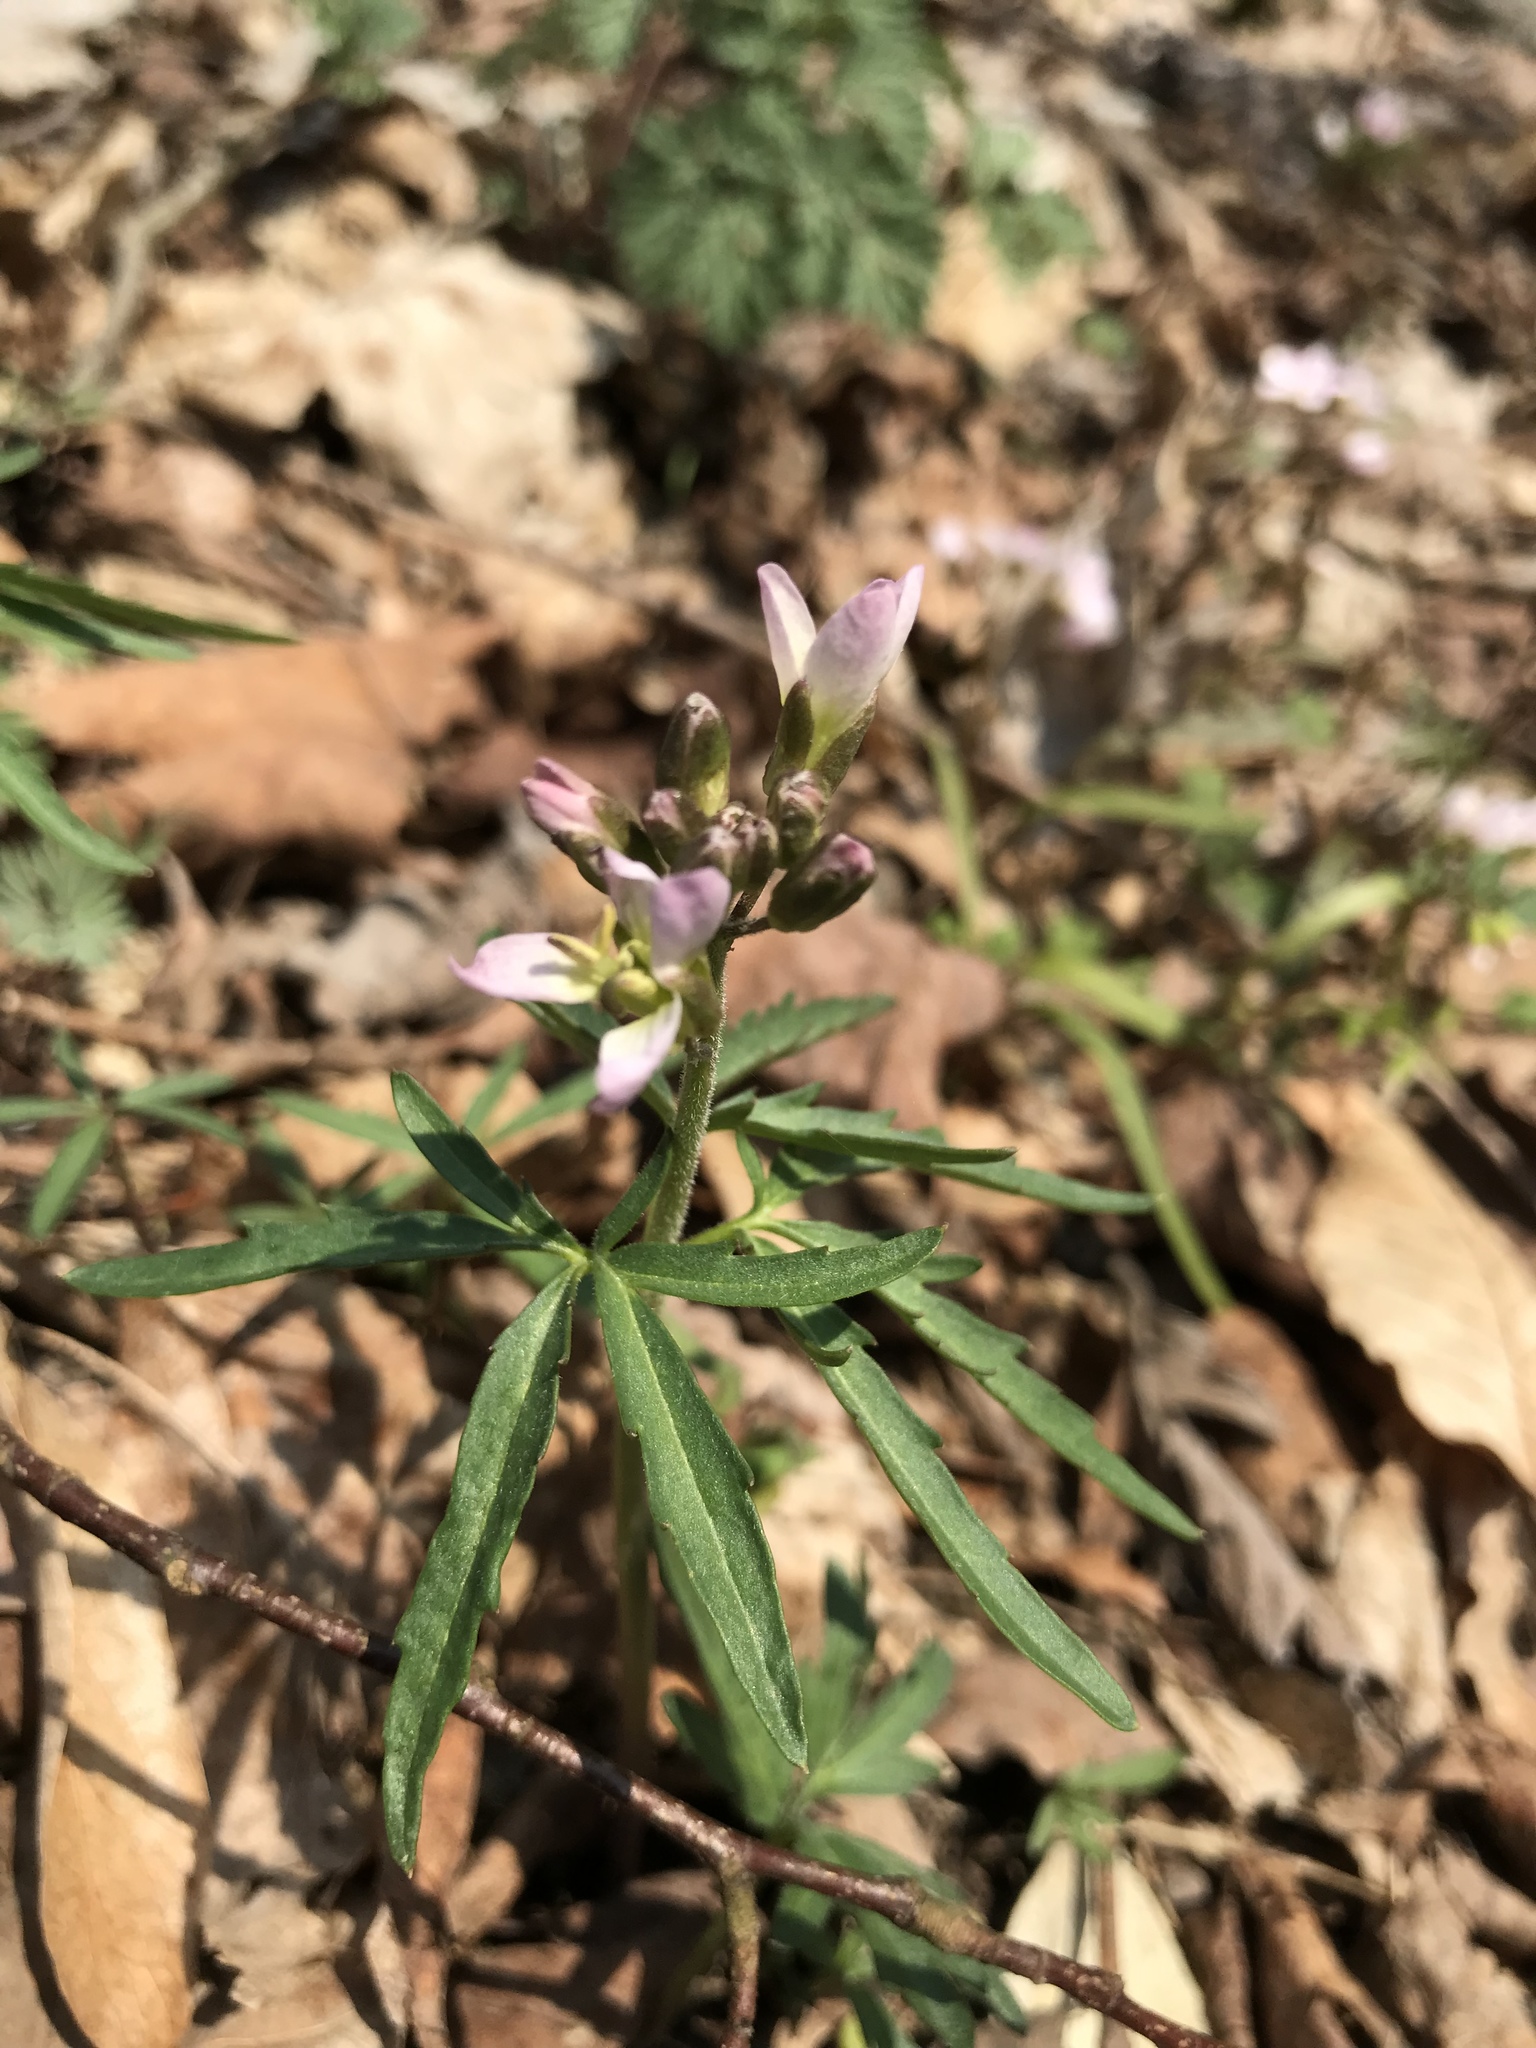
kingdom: Plantae
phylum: Tracheophyta
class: Magnoliopsida
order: Brassicales
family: Brassicaceae
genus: Cardamine
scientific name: Cardamine concatenata
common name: Cut-leaf toothcup
